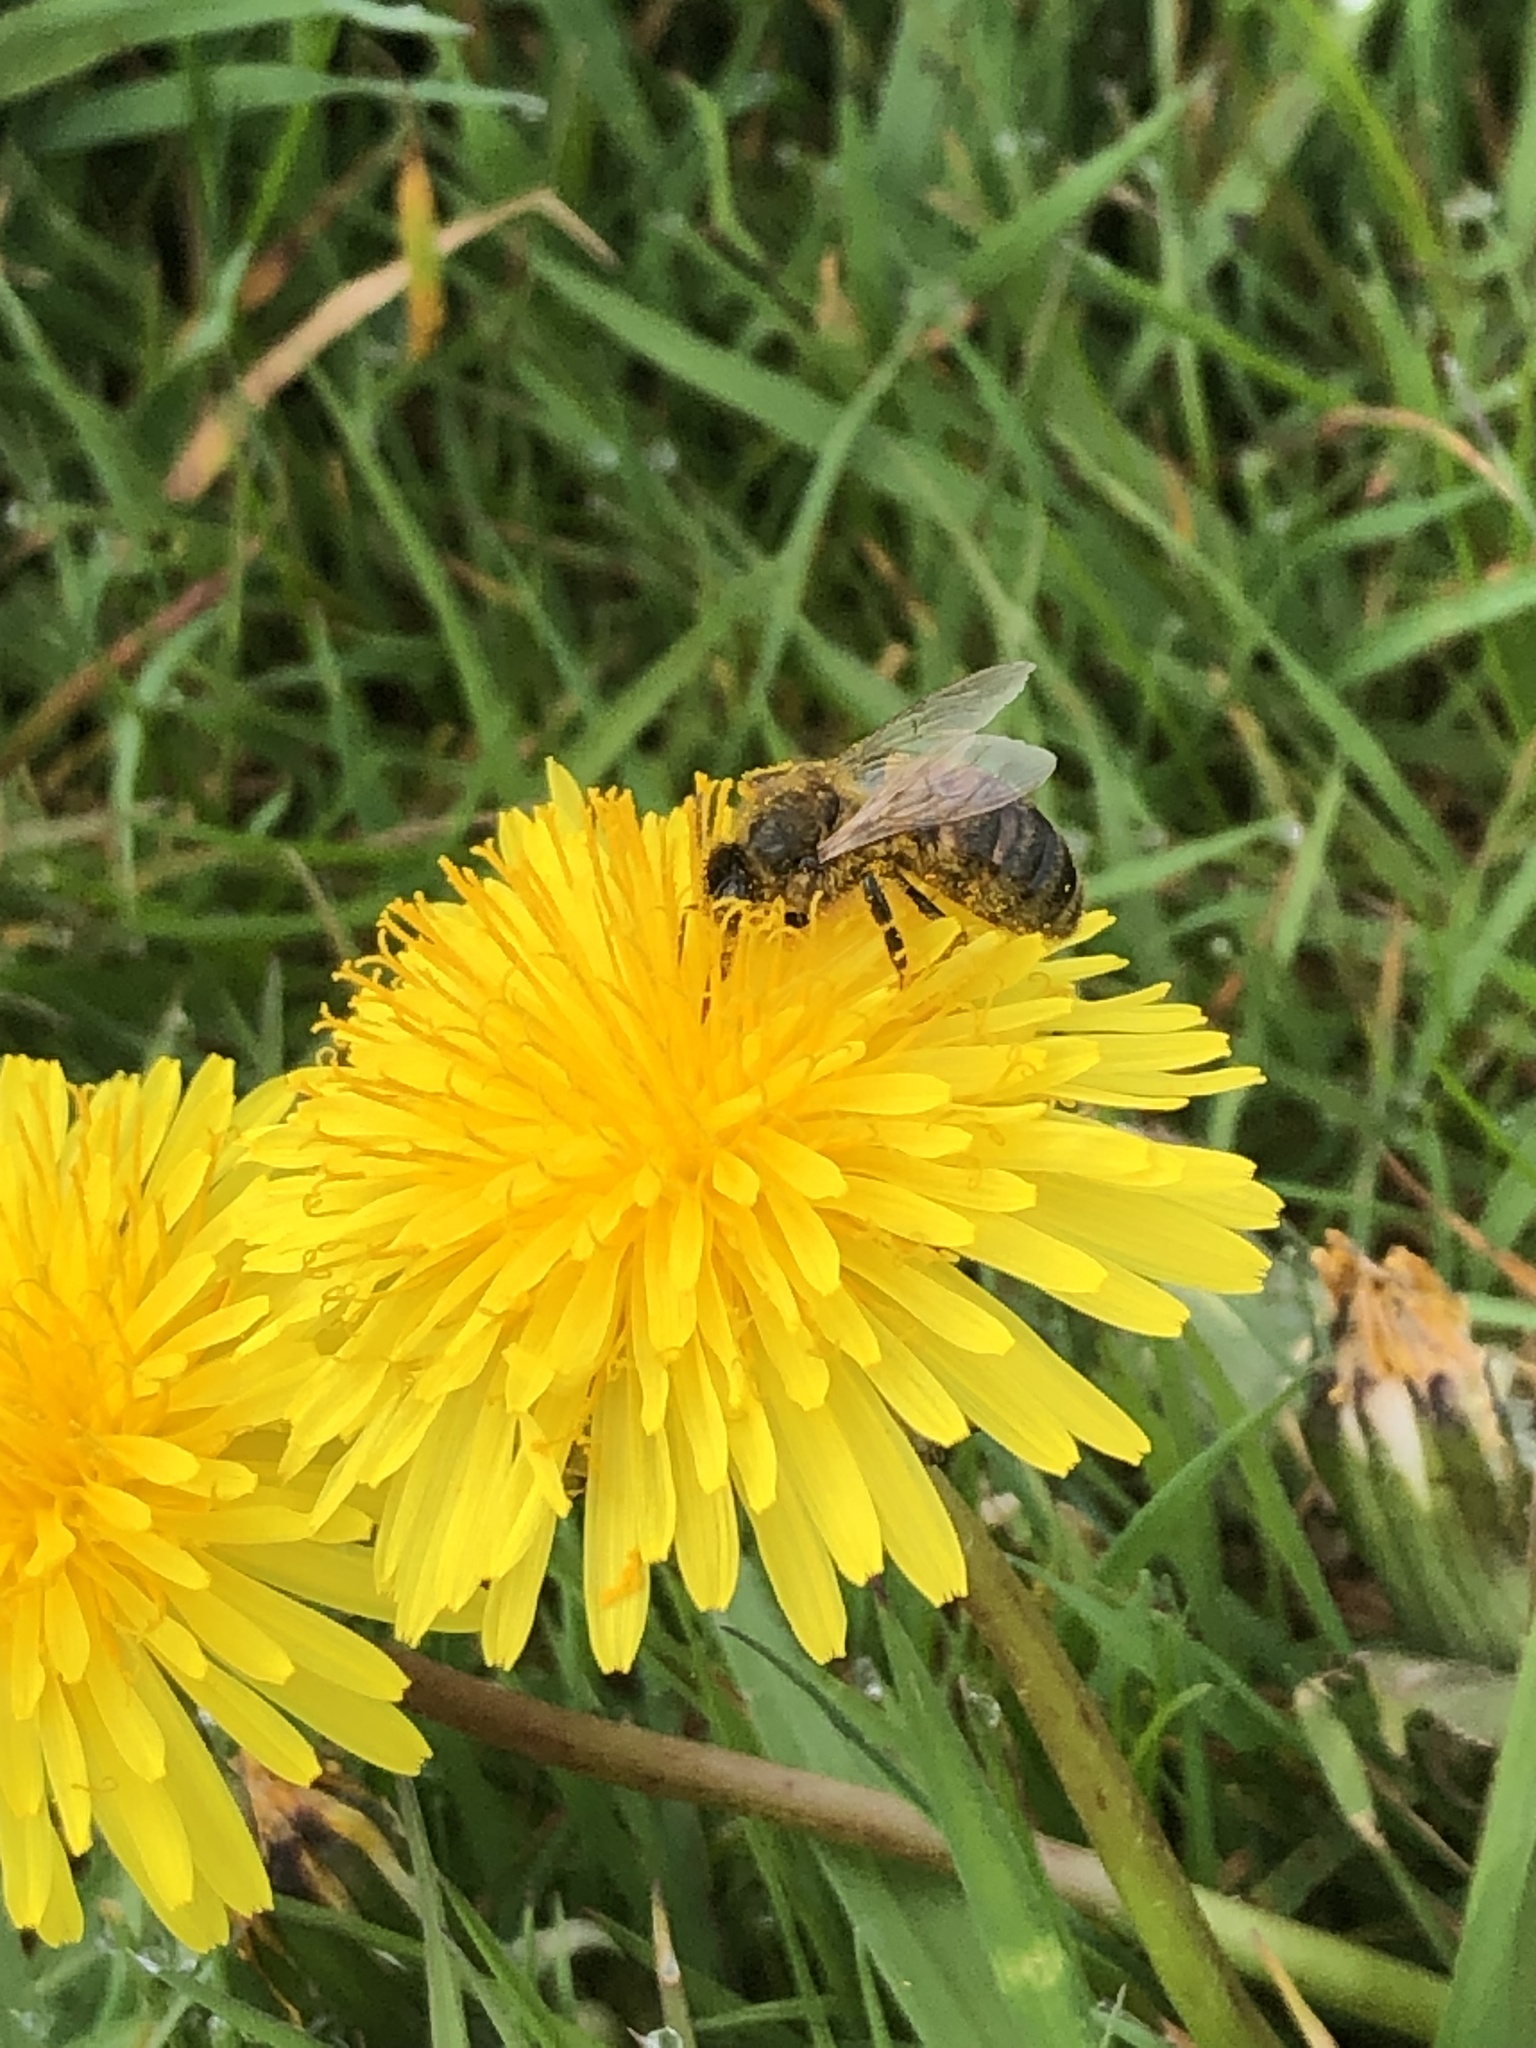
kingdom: Animalia
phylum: Arthropoda
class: Insecta
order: Hymenoptera
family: Apidae
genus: Apis
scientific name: Apis mellifera
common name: Honey bee
